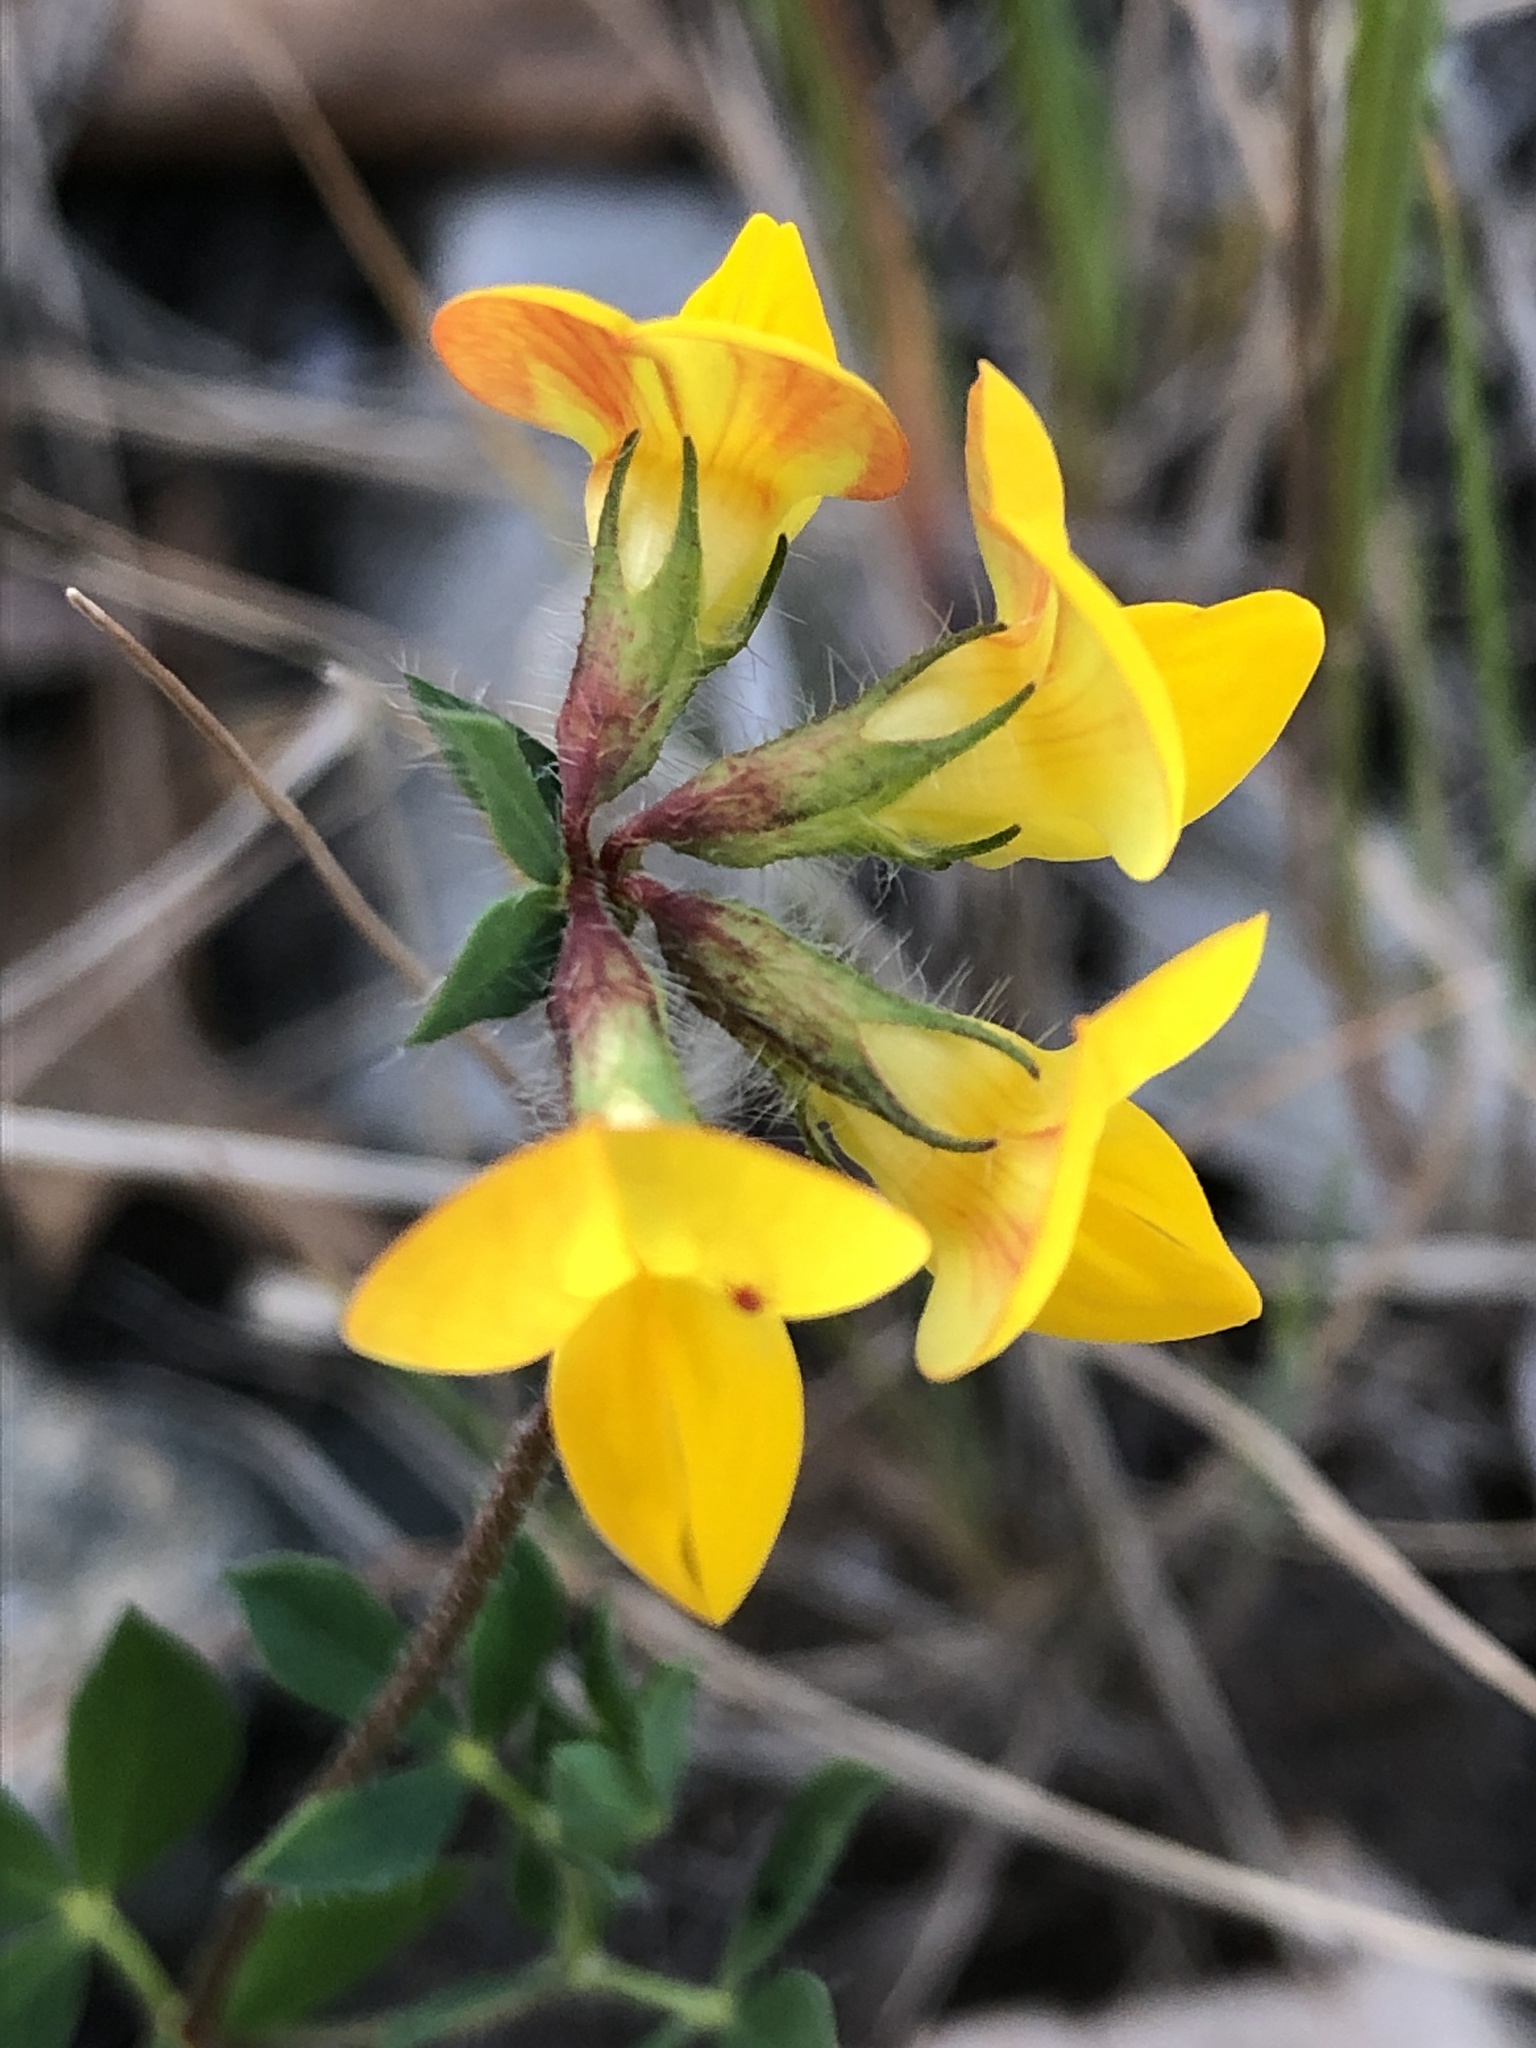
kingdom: Plantae
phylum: Tracheophyta
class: Magnoliopsida
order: Fabales
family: Fabaceae
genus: Lotus
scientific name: Lotus corniculatus
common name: Common bird's-foot-trefoil
